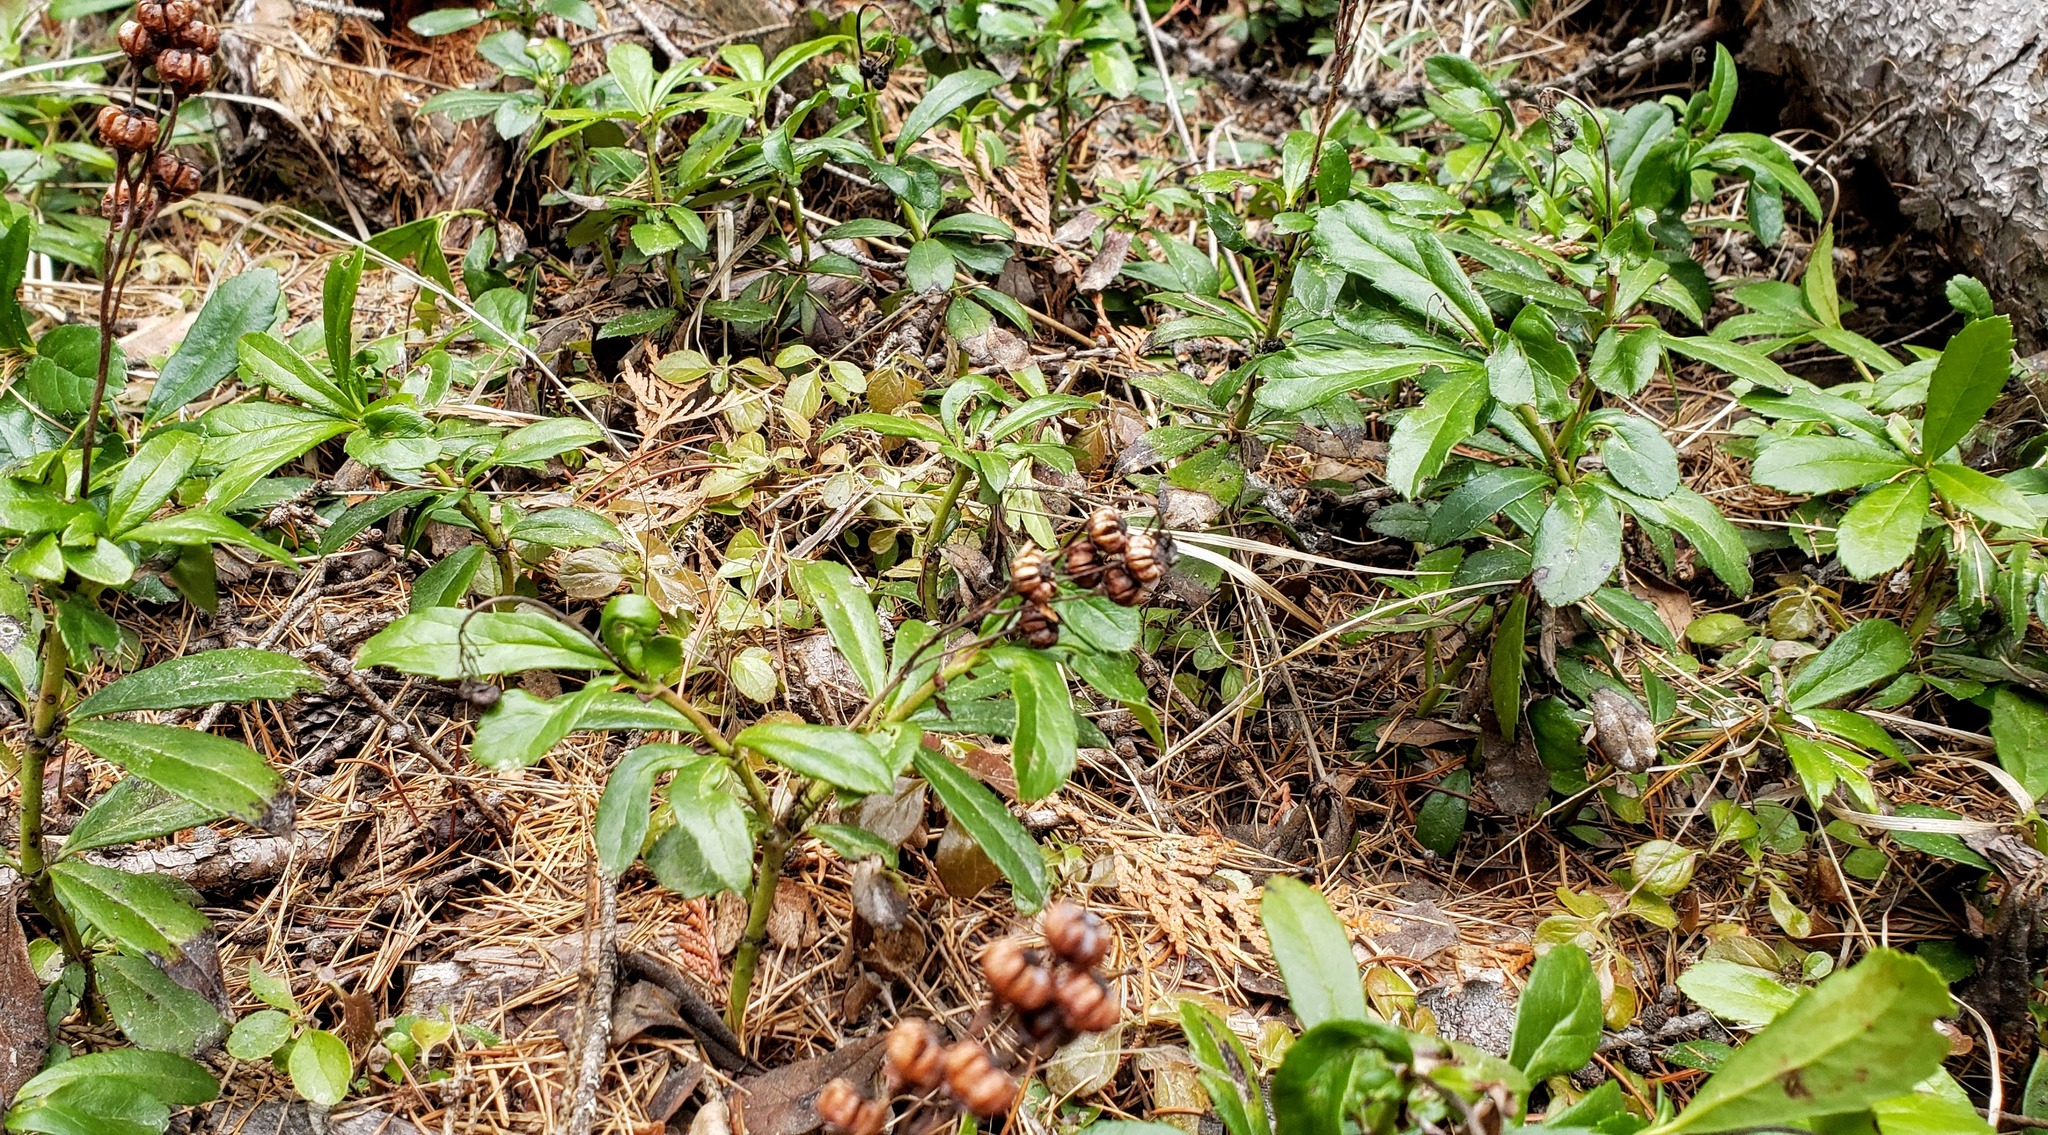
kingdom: Plantae
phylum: Tracheophyta
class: Magnoliopsida
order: Ericales
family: Ericaceae
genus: Chimaphila
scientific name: Chimaphila umbellata
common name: Pipsissewa
